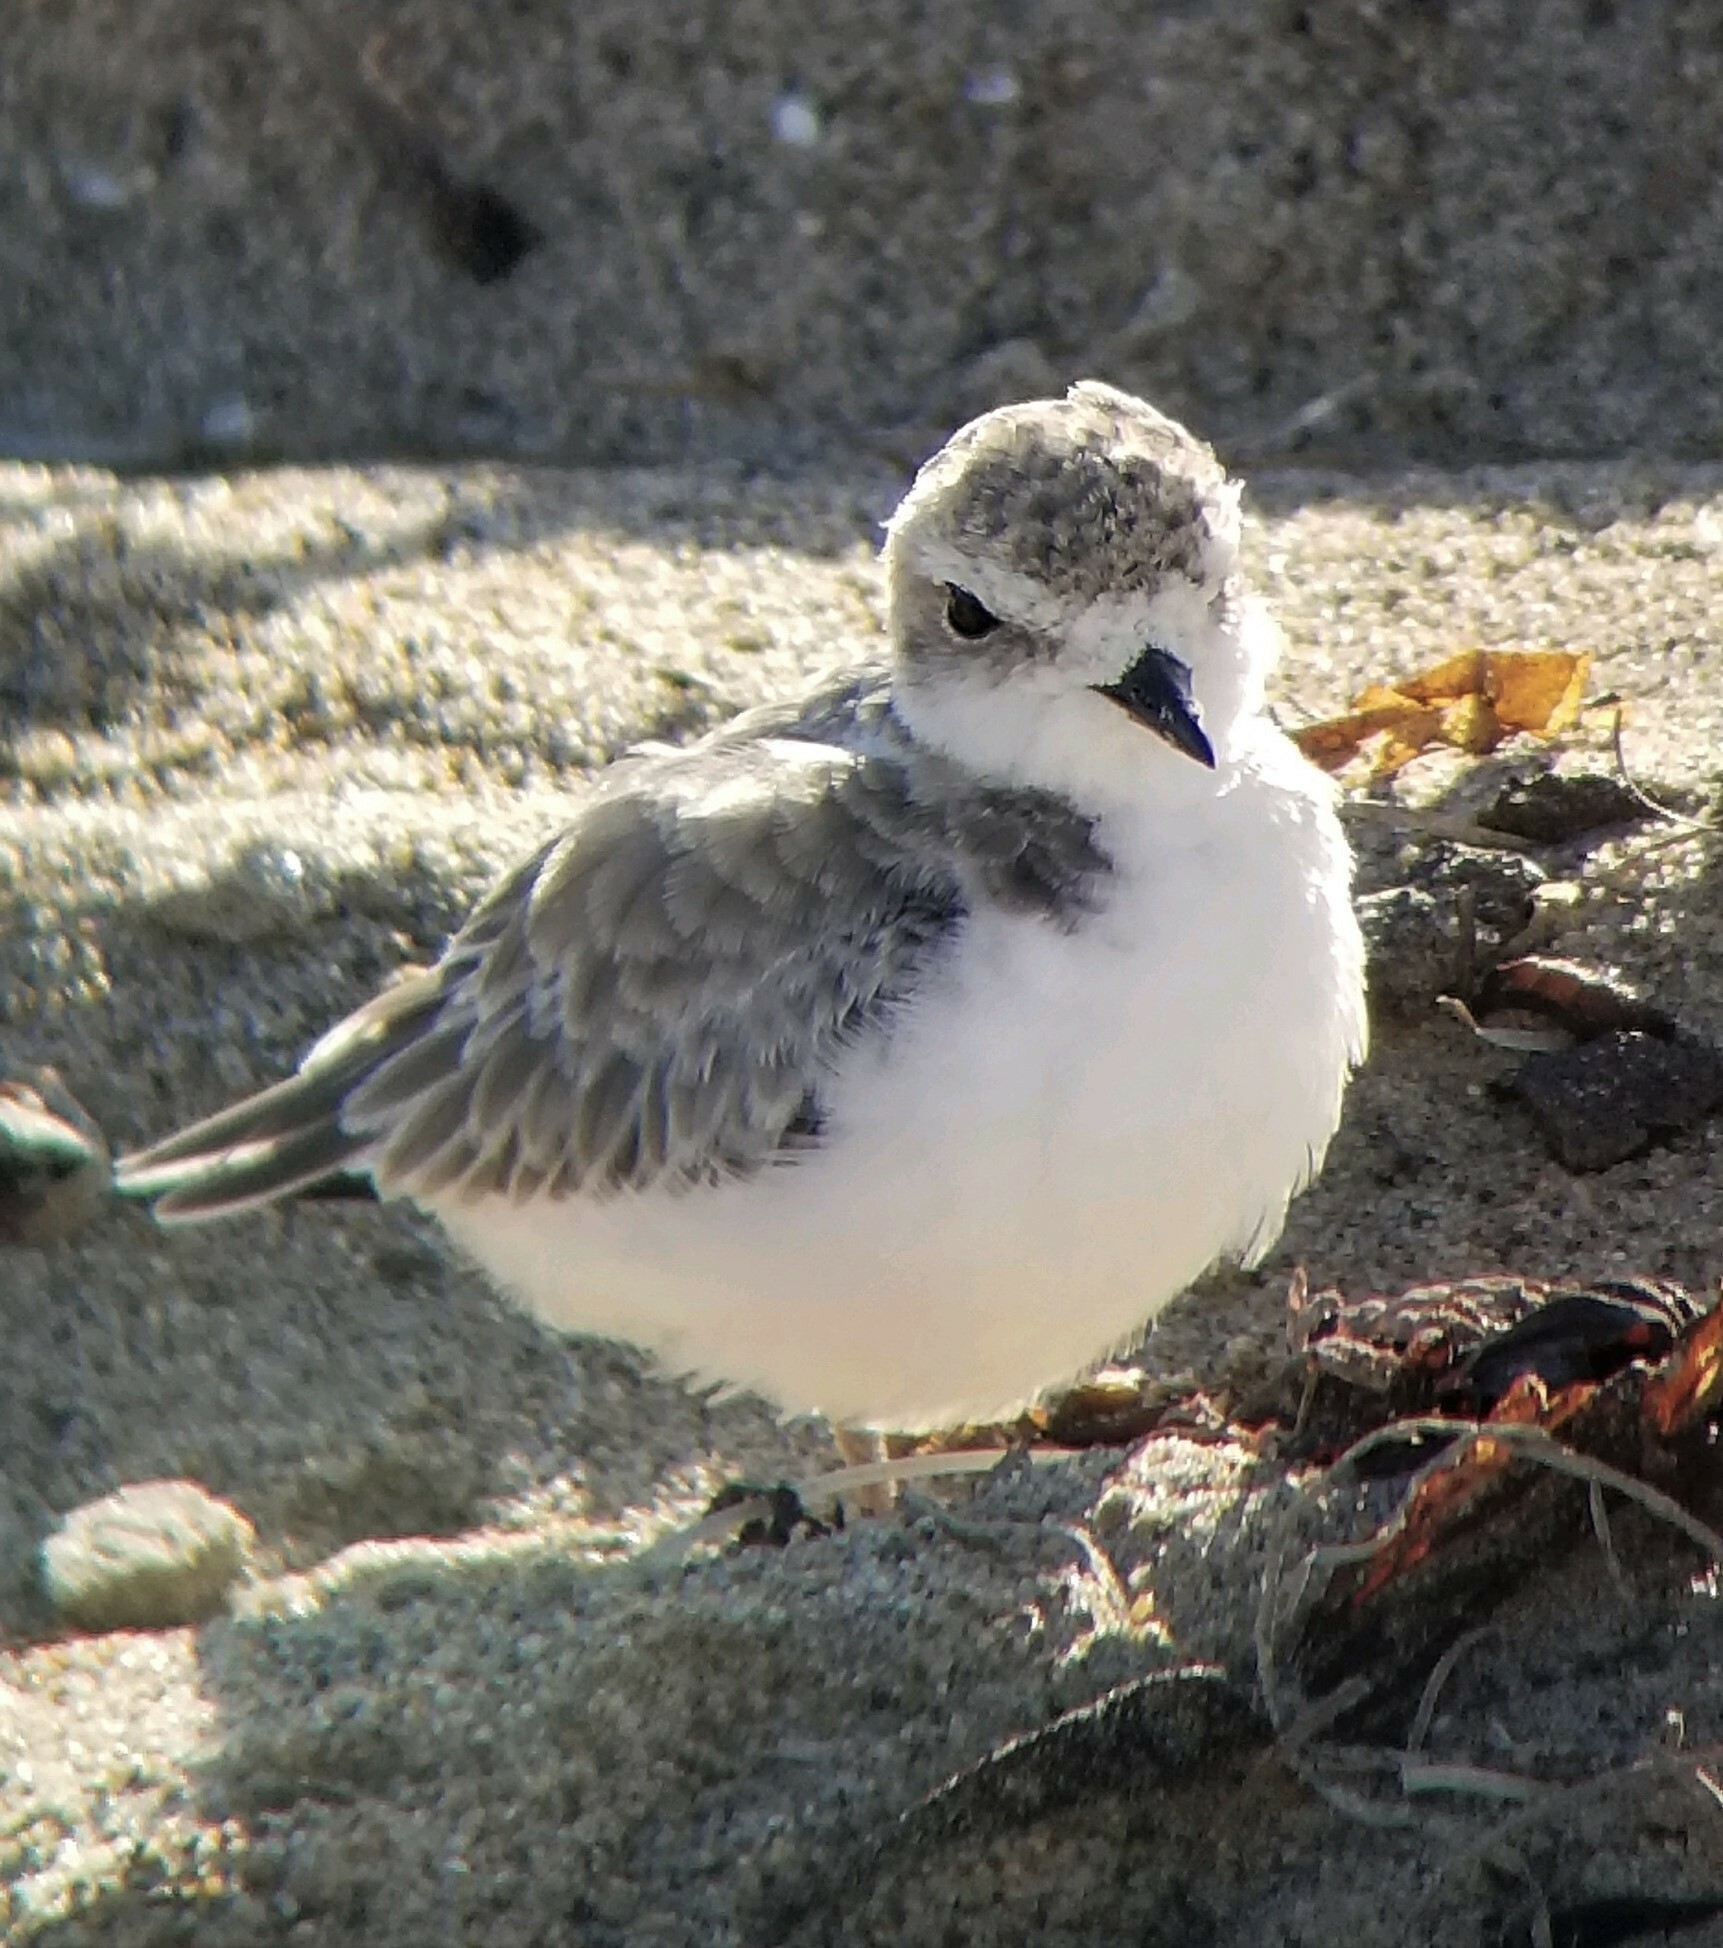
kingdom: Animalia
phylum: Chordata
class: Aves
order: Charadriiformes
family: Charadriidae
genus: Anarhynchus
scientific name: Anarhynchus
